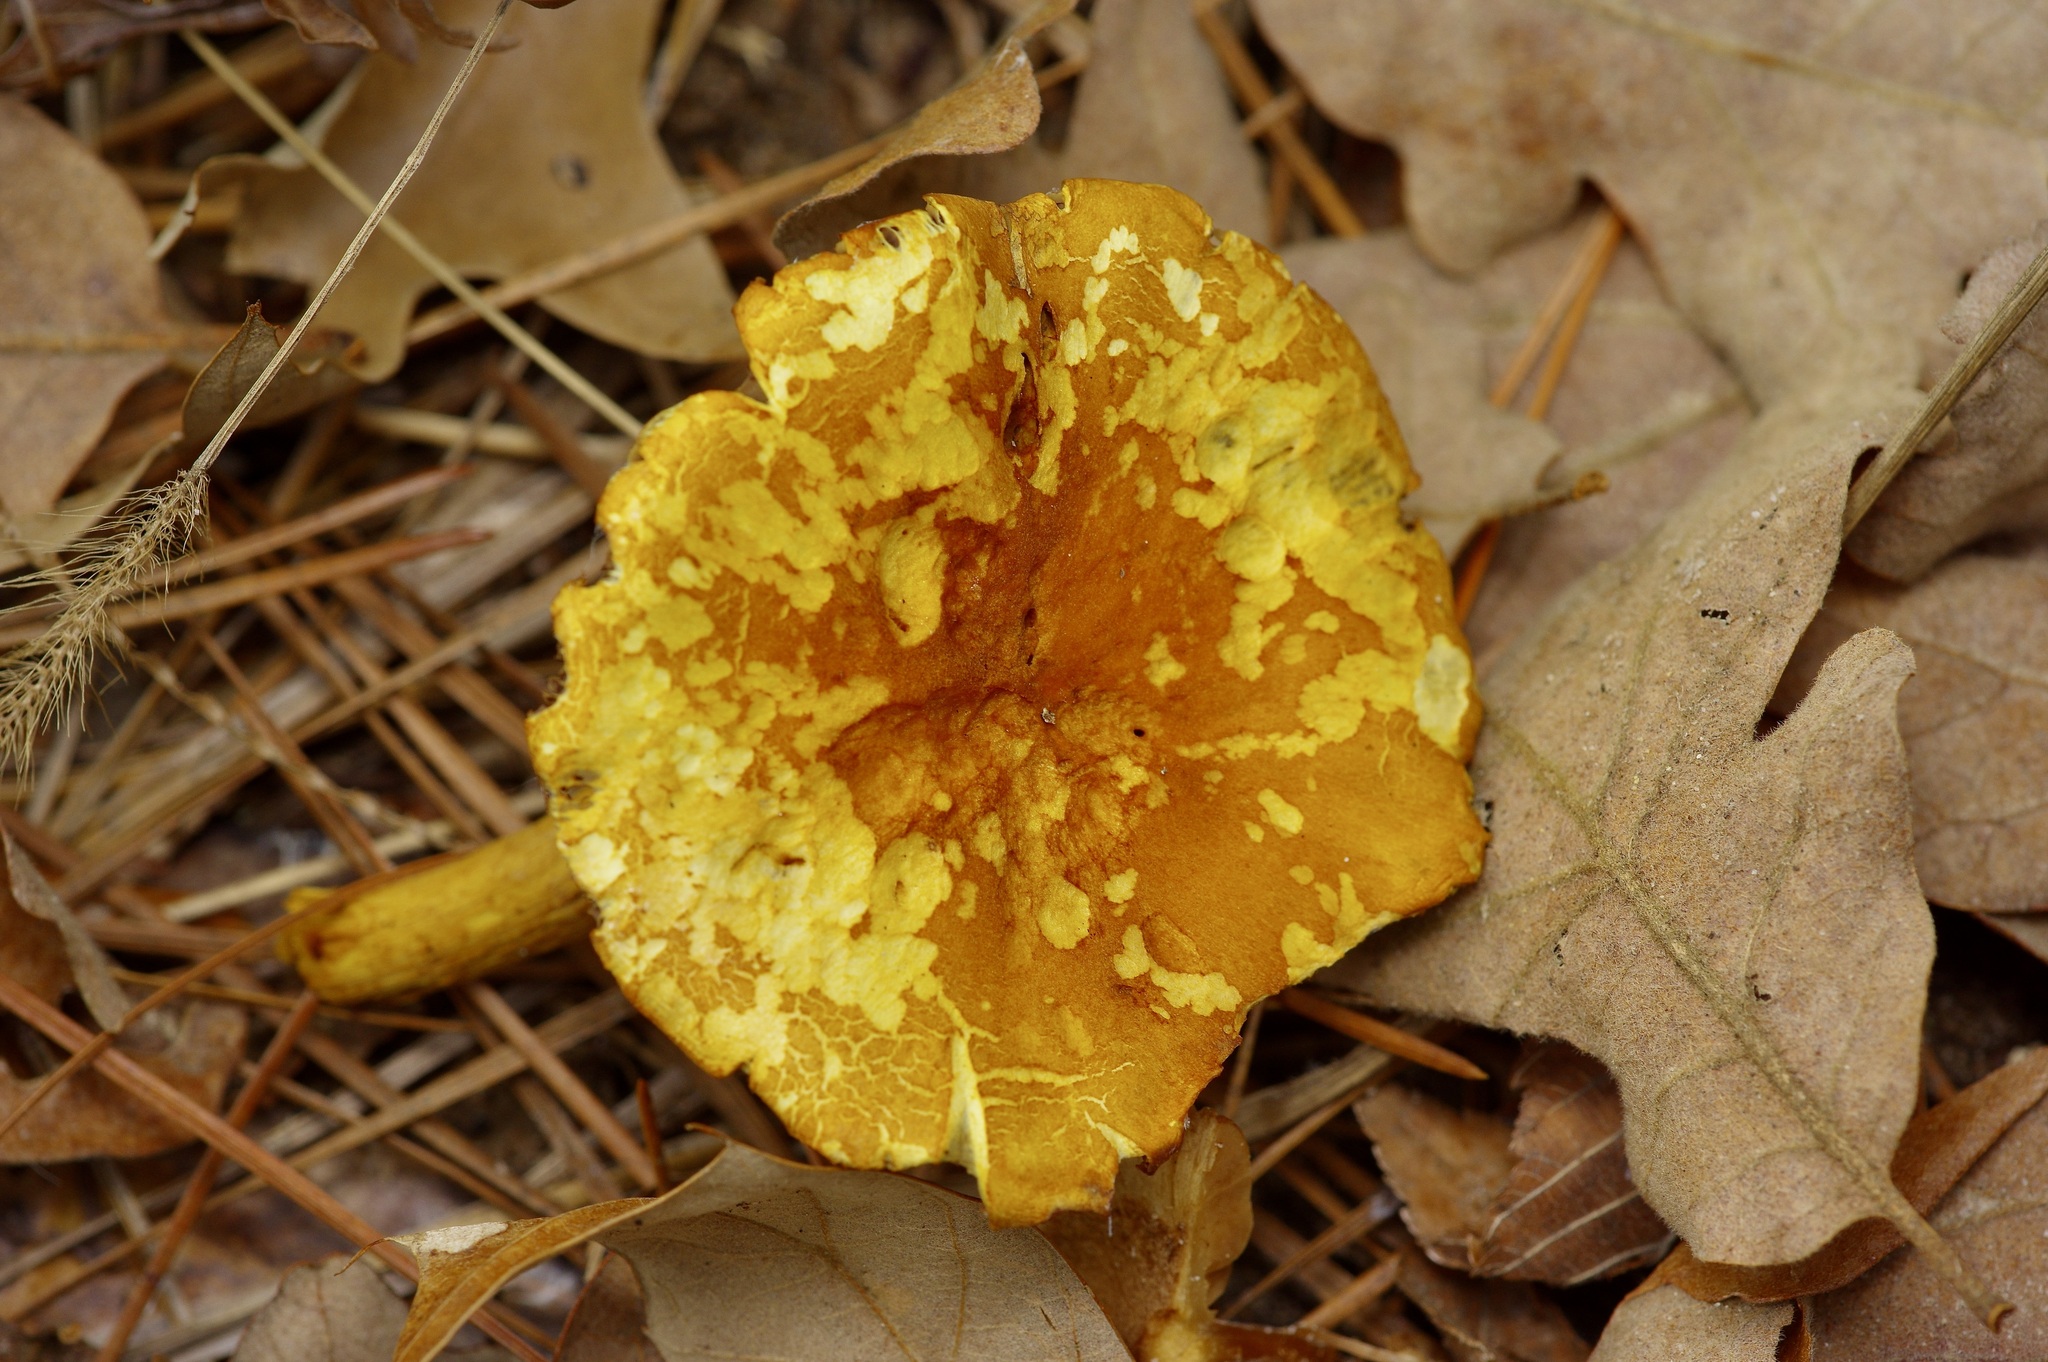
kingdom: Fungi
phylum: Basidiomycota
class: Agaricomycetes
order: Agaricales
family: Strophariaceae
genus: Hypholoma
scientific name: Hypholoma fasciculare
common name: Sulphur tuft
